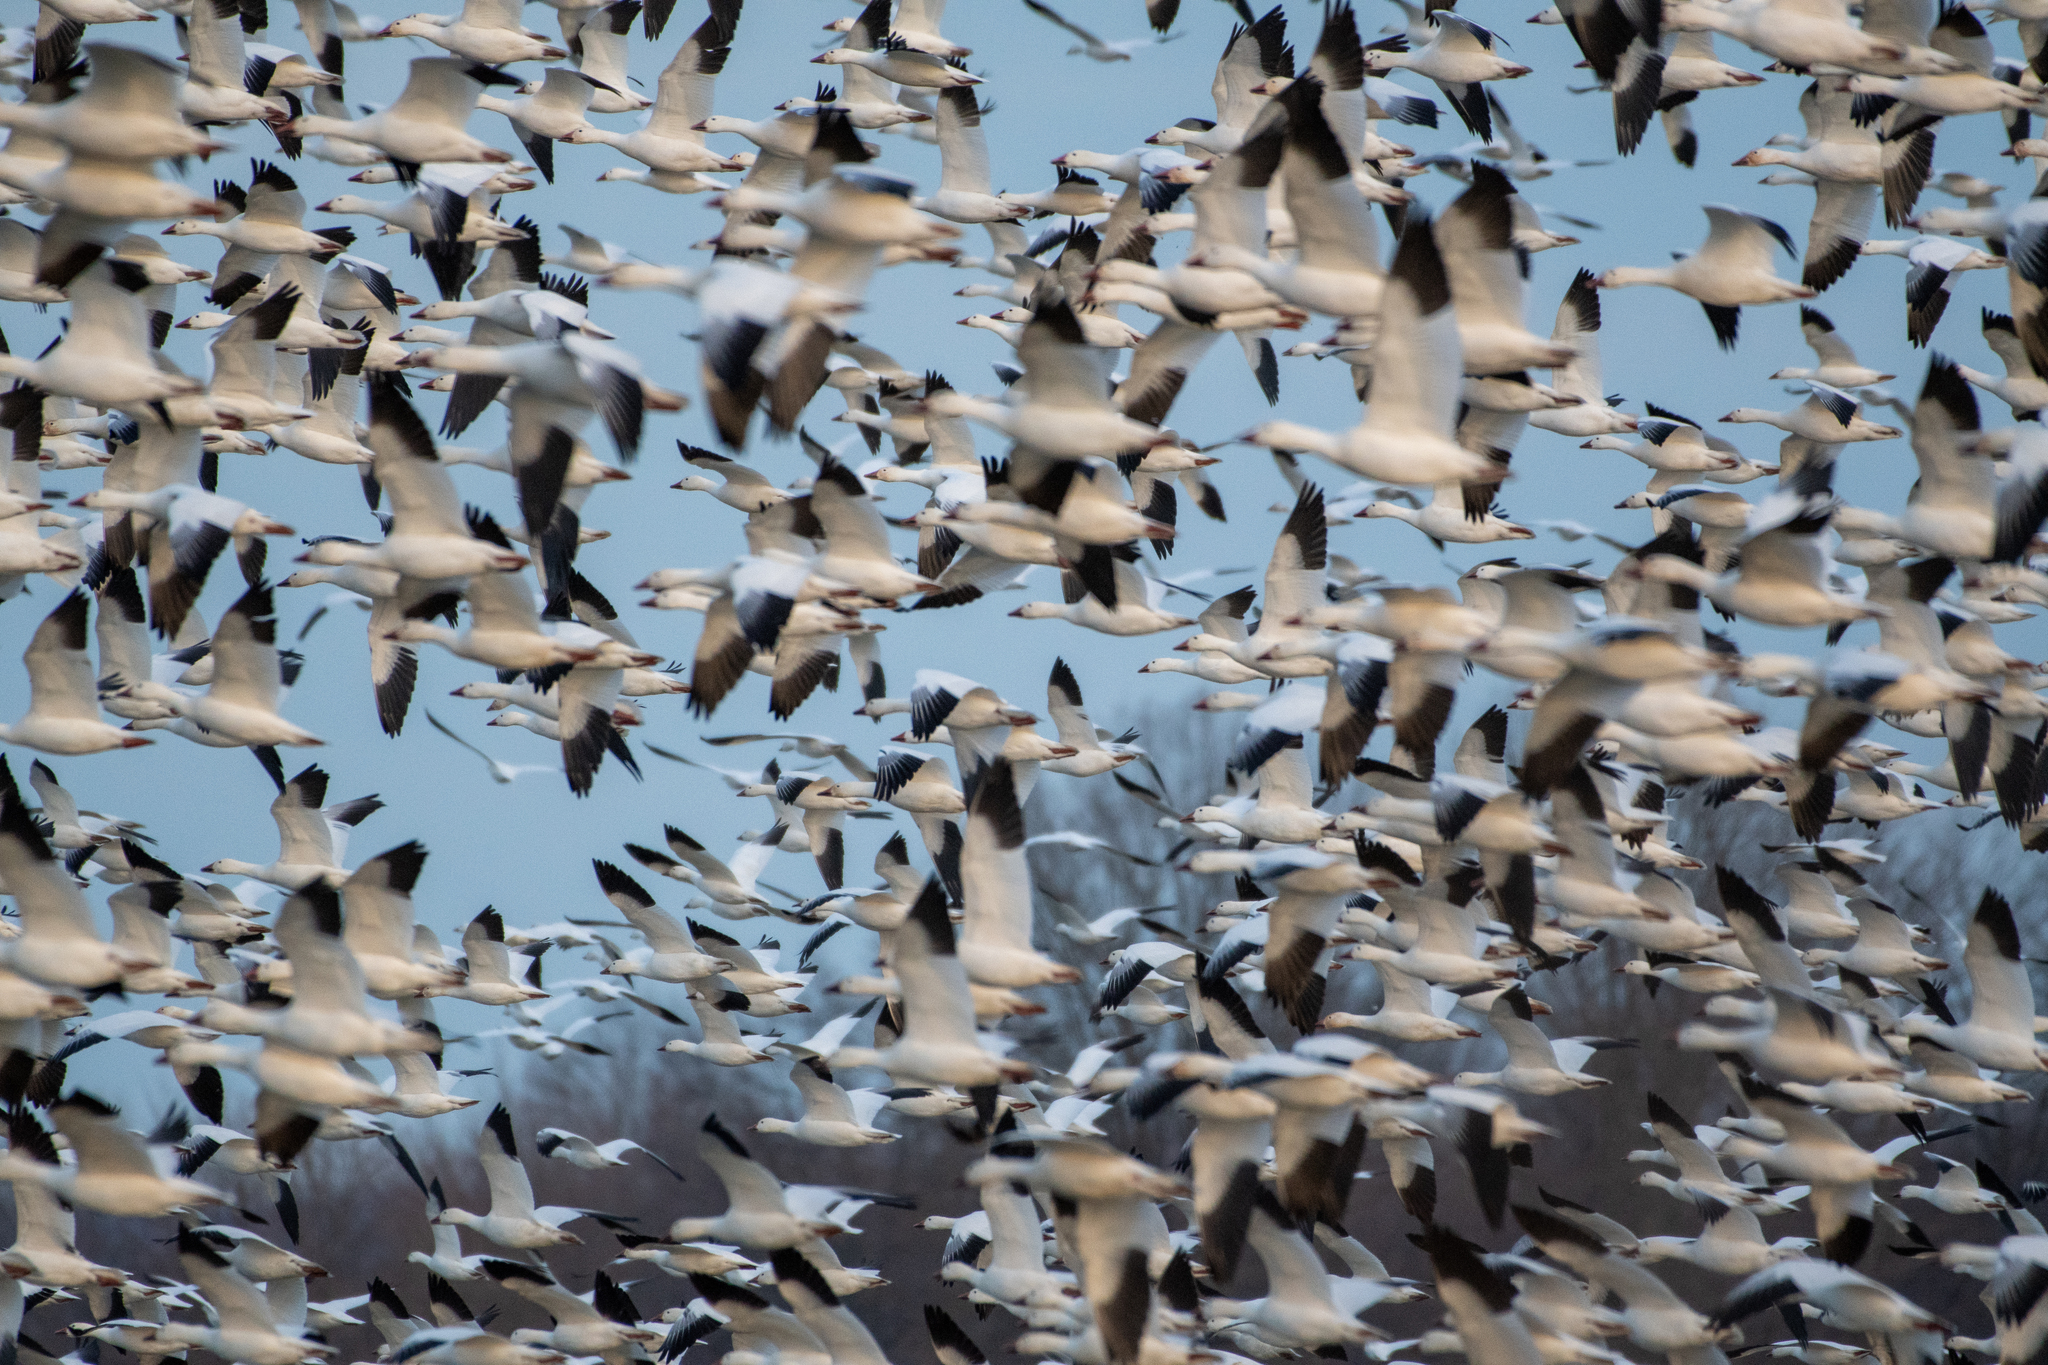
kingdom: Animalia
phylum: Chordata
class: Aves
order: Anseriformes
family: Anatidae
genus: Anser
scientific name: Anser caerulescens
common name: Snow goose
